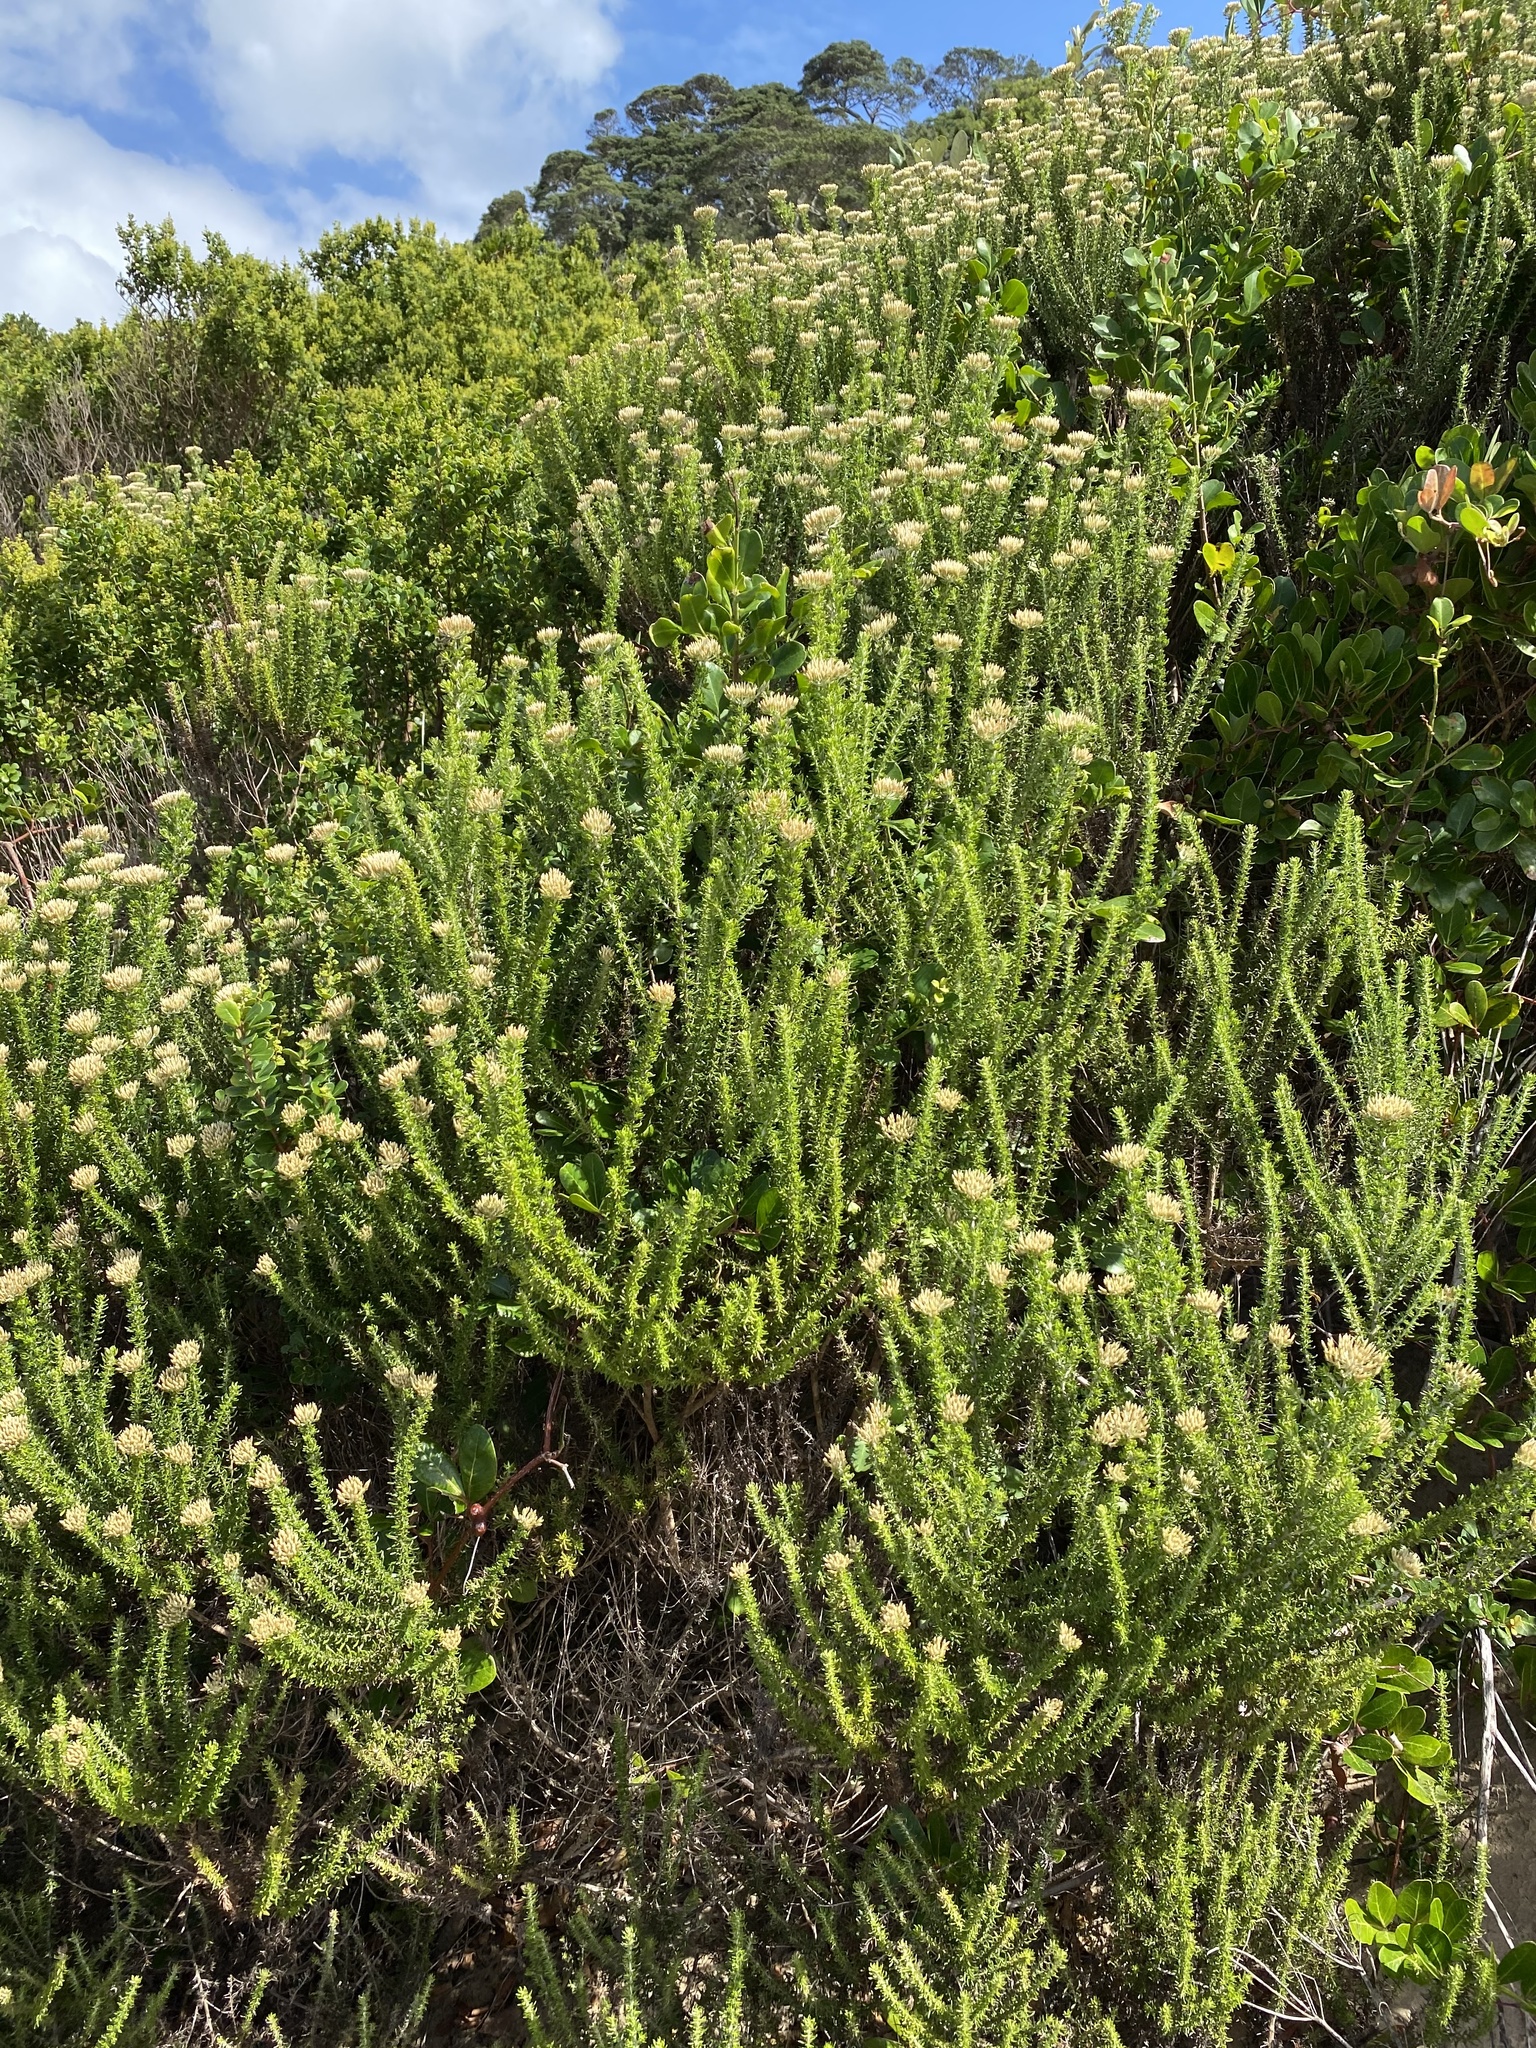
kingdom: Plantae
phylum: Tracheophyta
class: Magnoliopsida
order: Asterales
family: Asteraceae
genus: Metalasia
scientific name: Metalasia muricata
